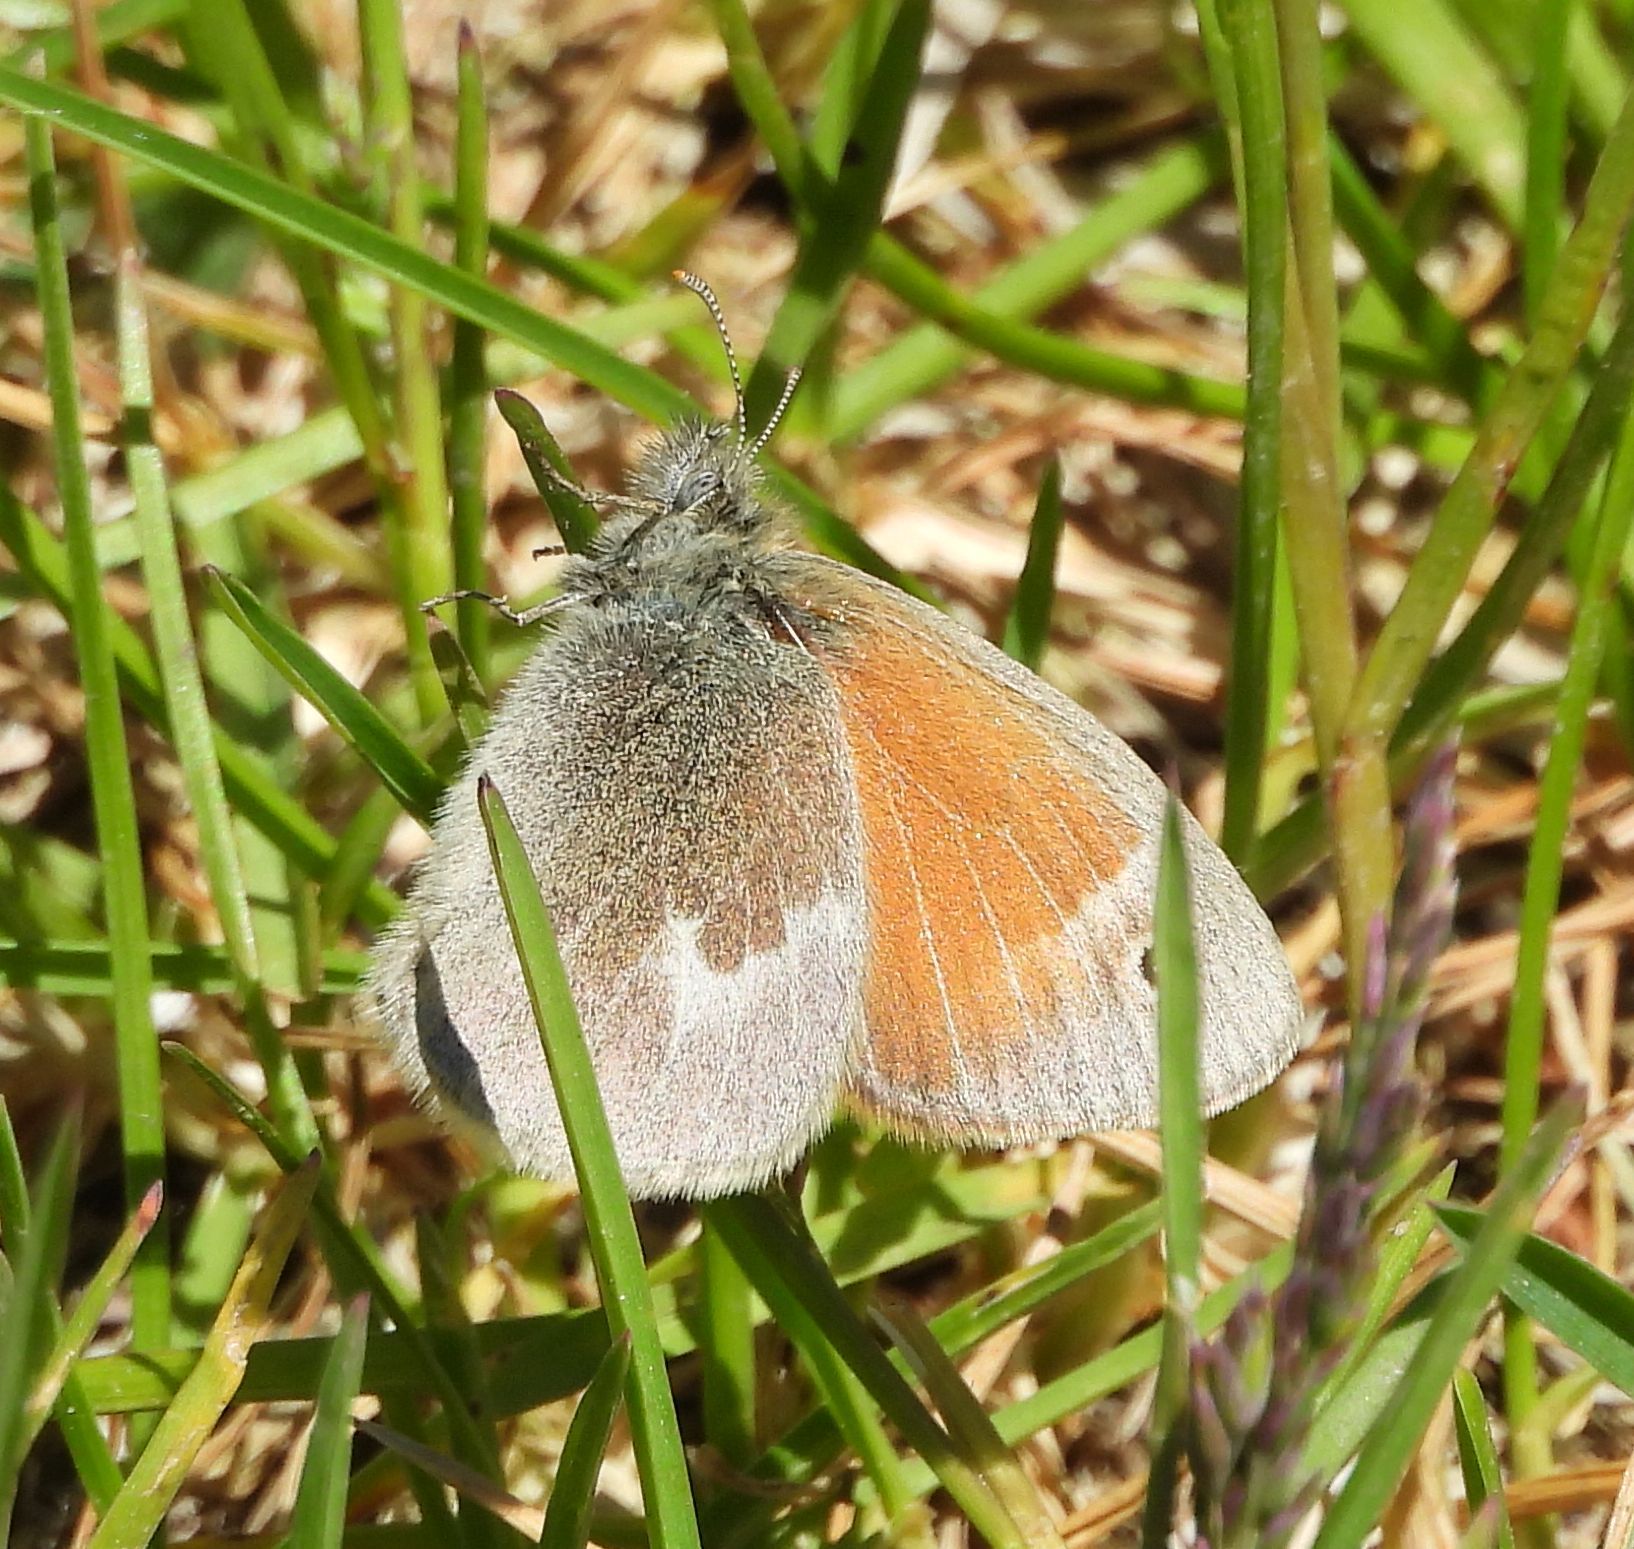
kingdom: Animalia
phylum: Arthropoda
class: Insecta
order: Lepidoptera
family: Nymphalidae
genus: Coenonympha
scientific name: Coenonympha california
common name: Common ringlet
